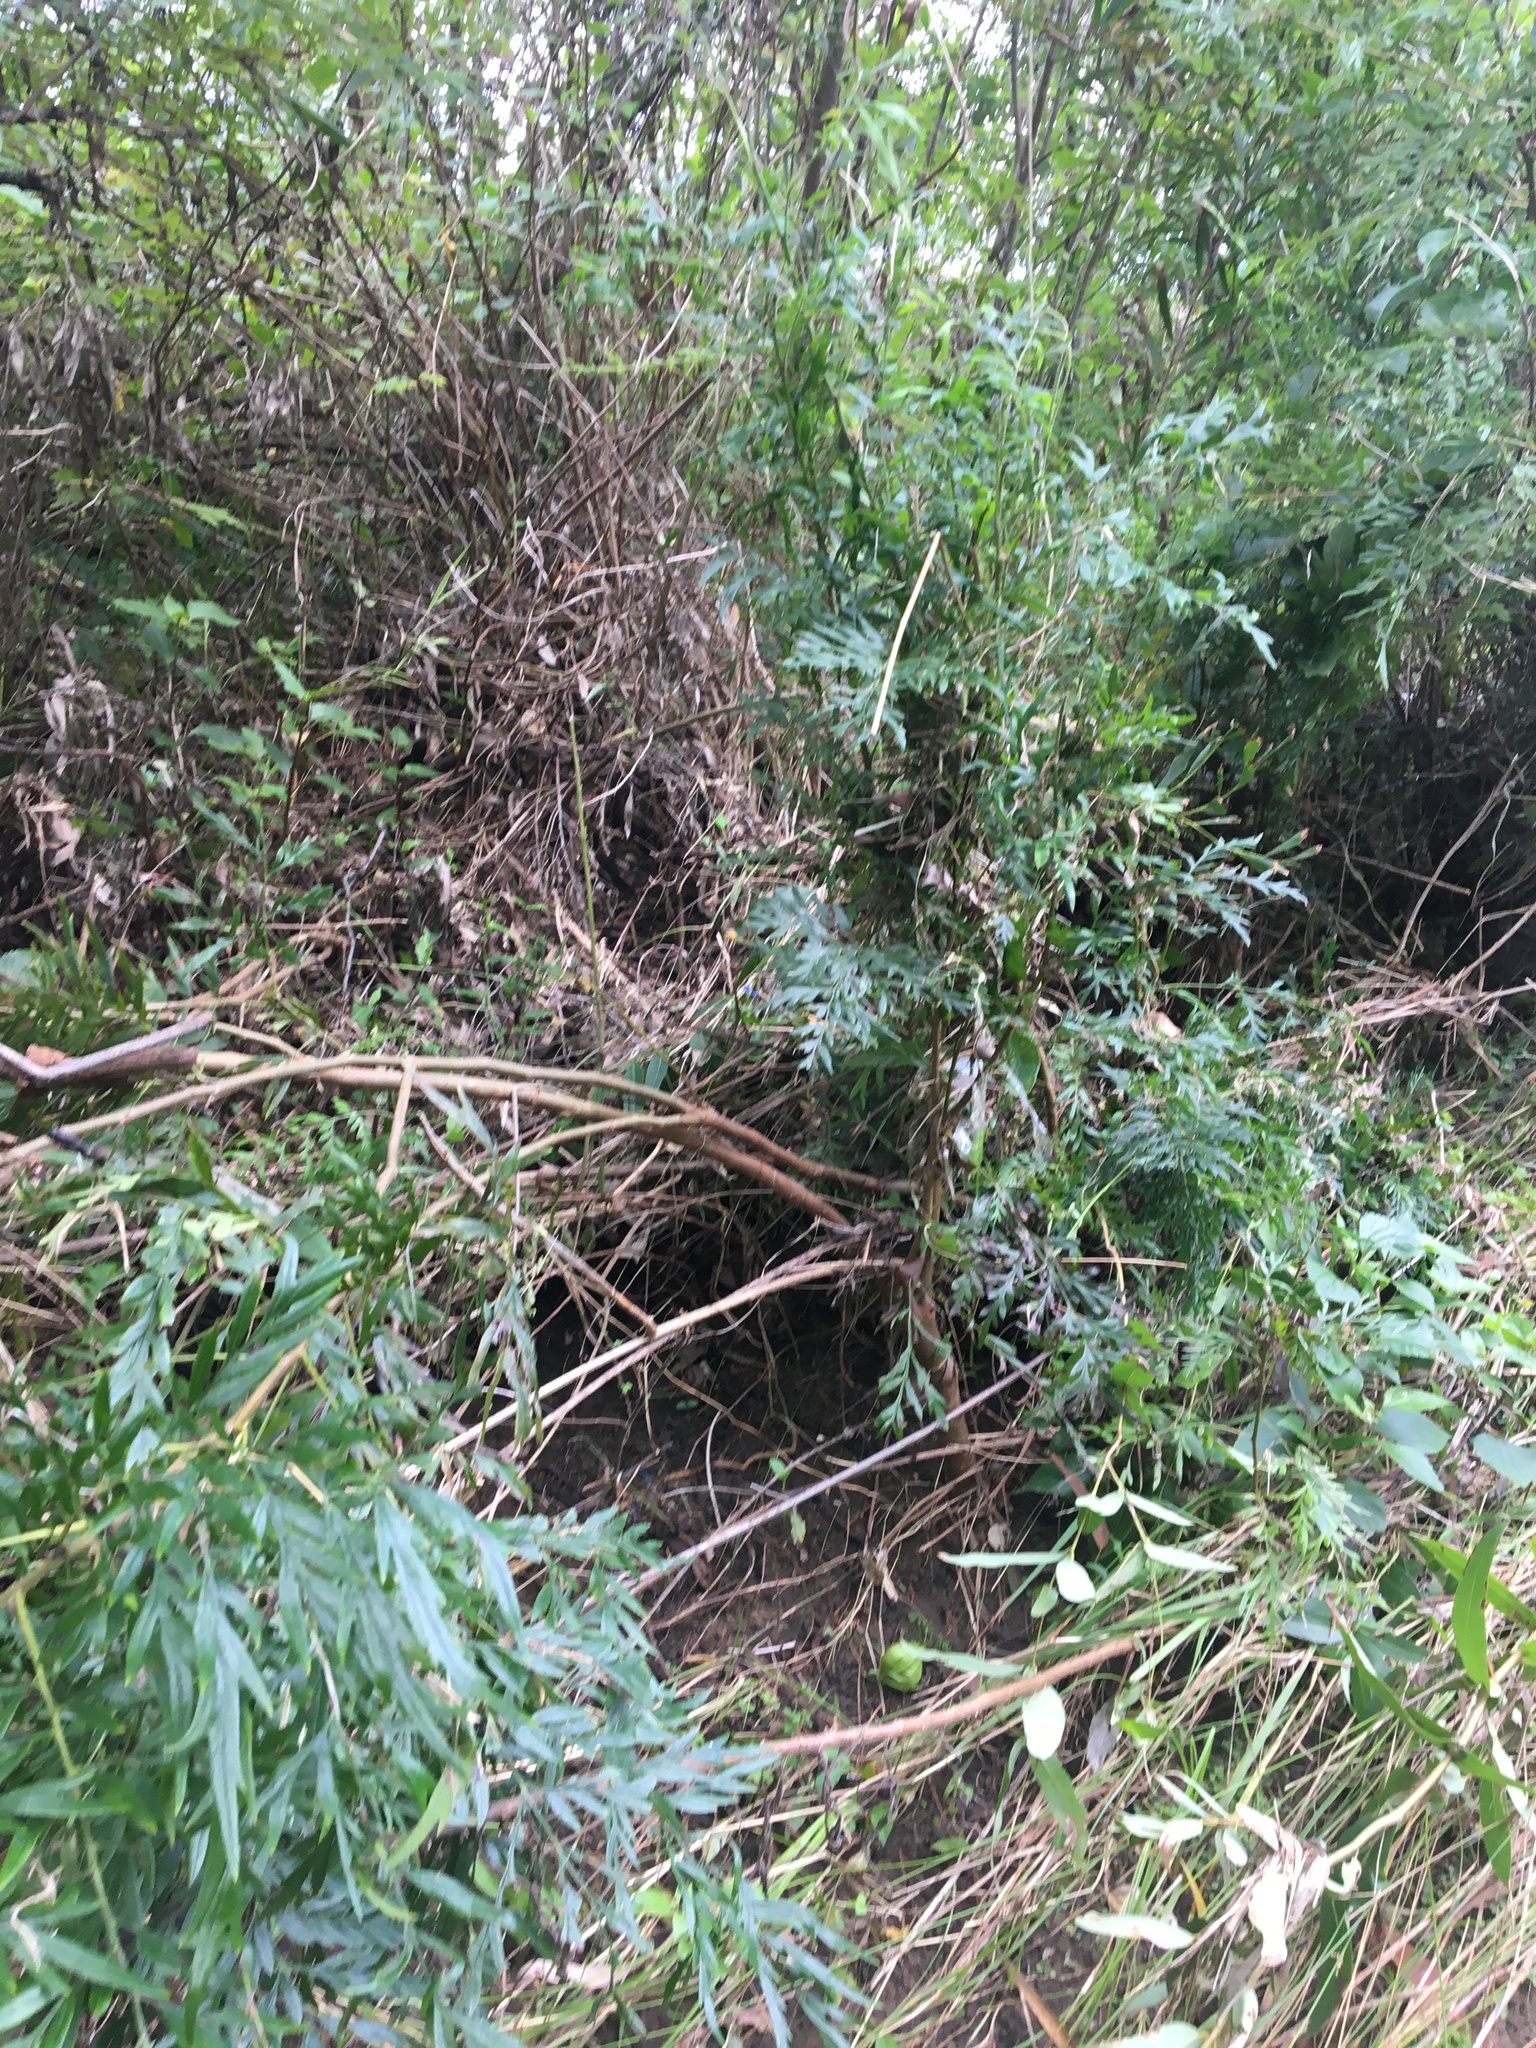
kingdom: Plantae
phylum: Tracheophyta
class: Magnoliopsida
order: Proteales
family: Proteaceae
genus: Grevillea
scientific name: Grevillea robusta
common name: Silkoak
